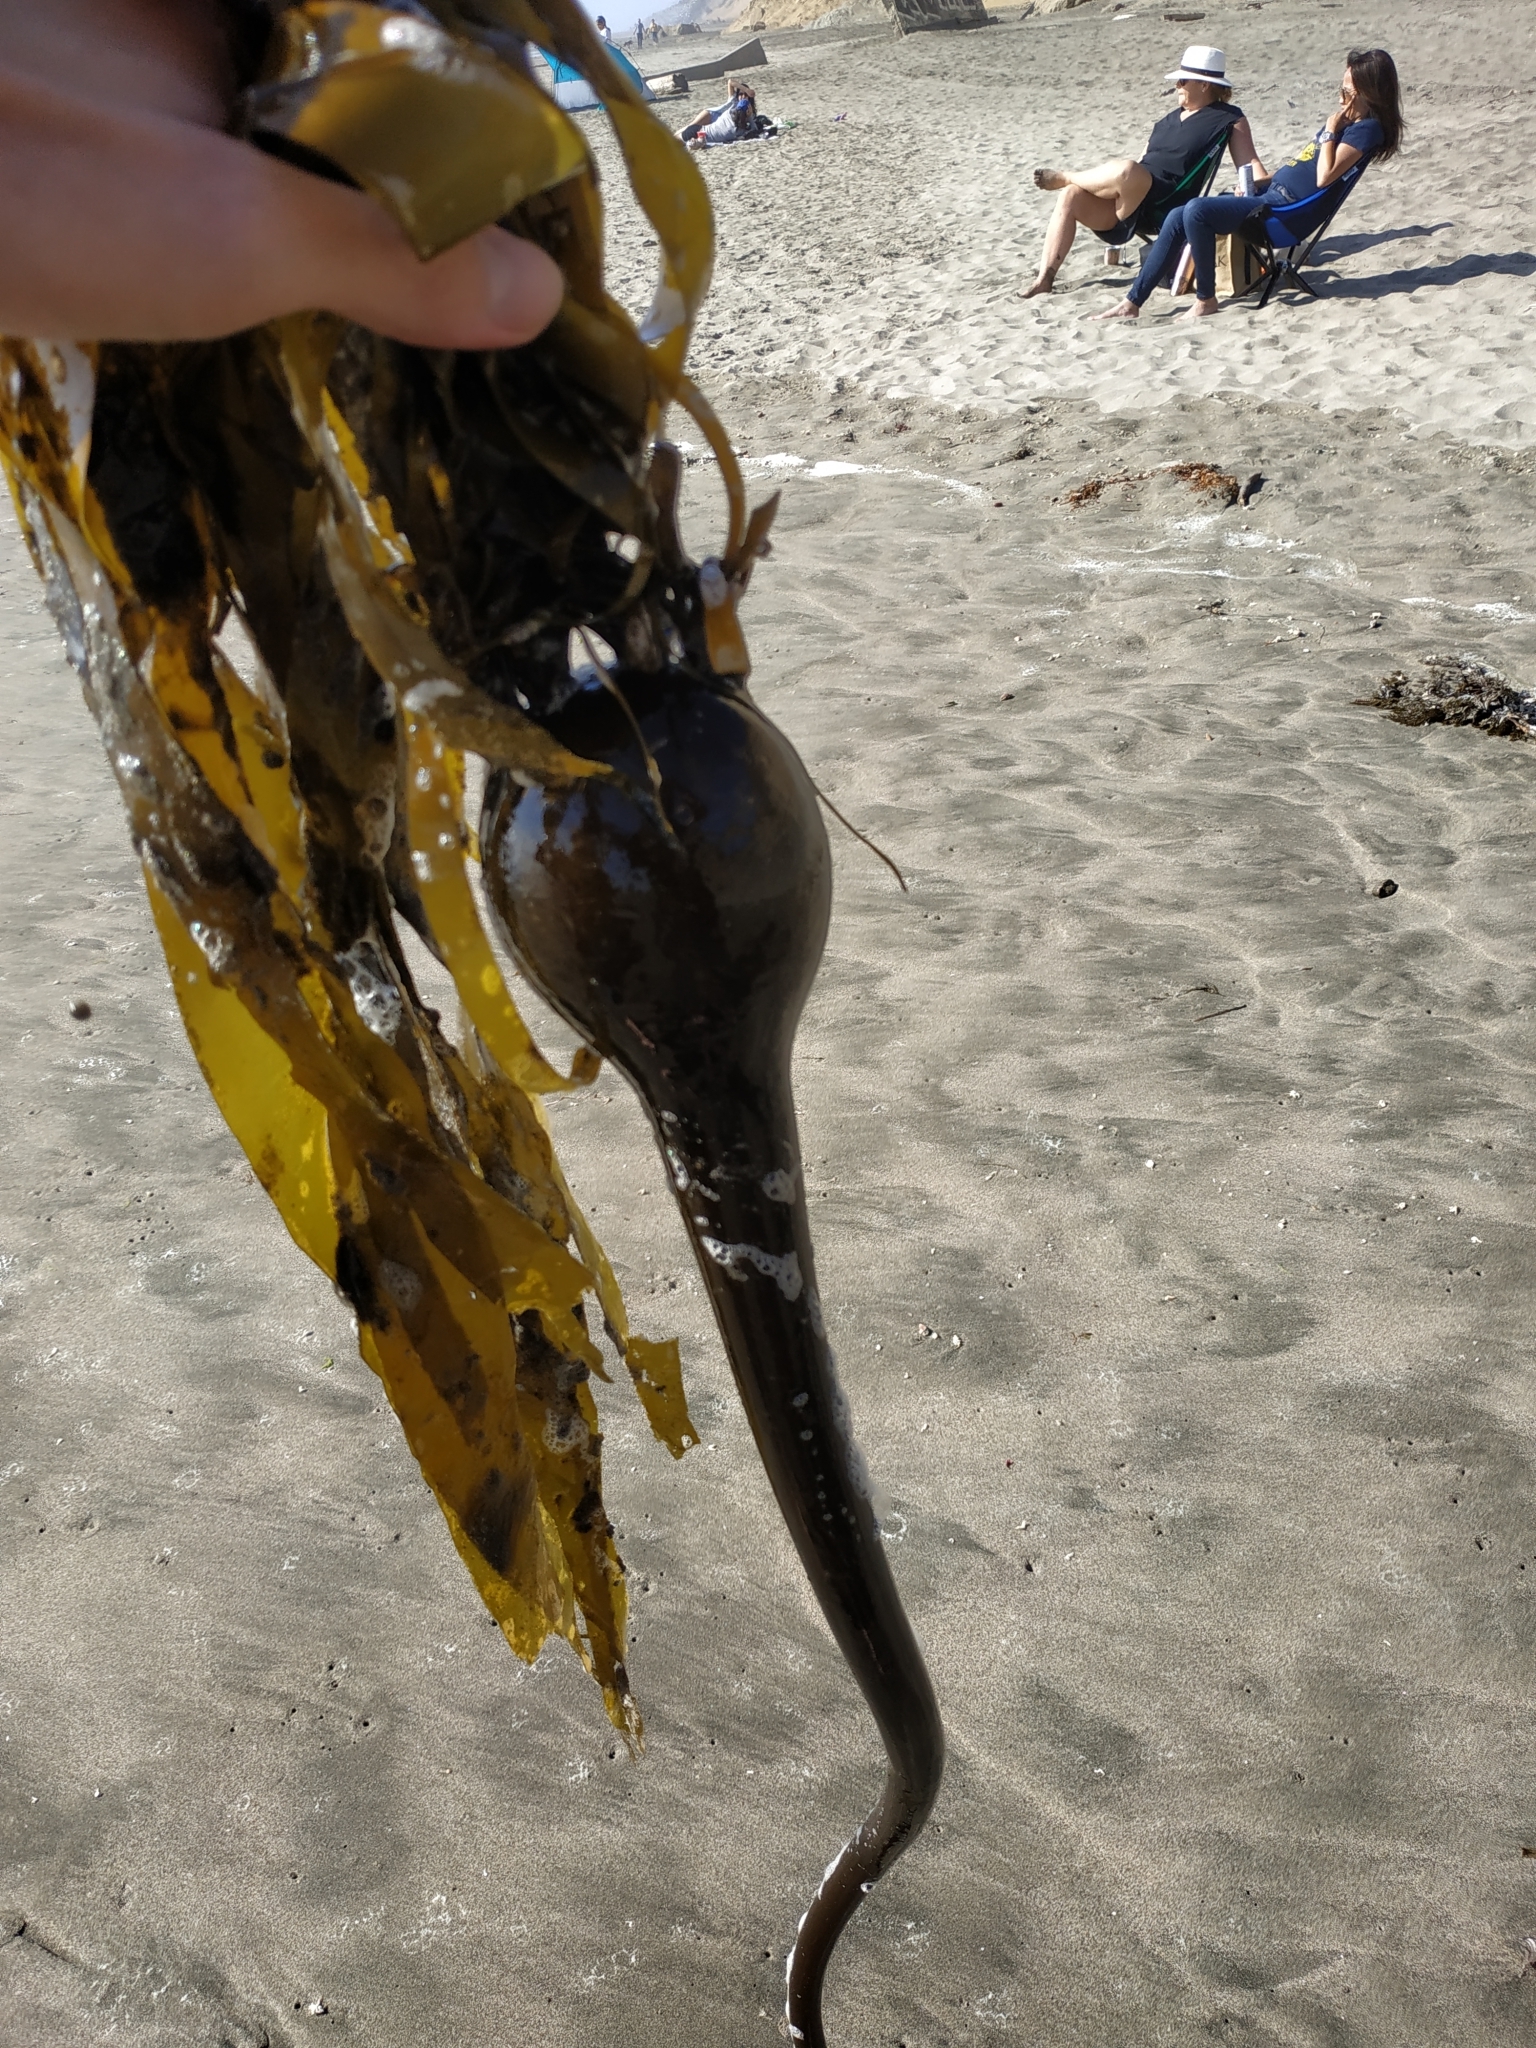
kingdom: Chromista
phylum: Ochrophyta
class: Phaeophyceae
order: Laminariales
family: Laminariaceae
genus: Nereocystis
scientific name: Nereocystis luetkeana
